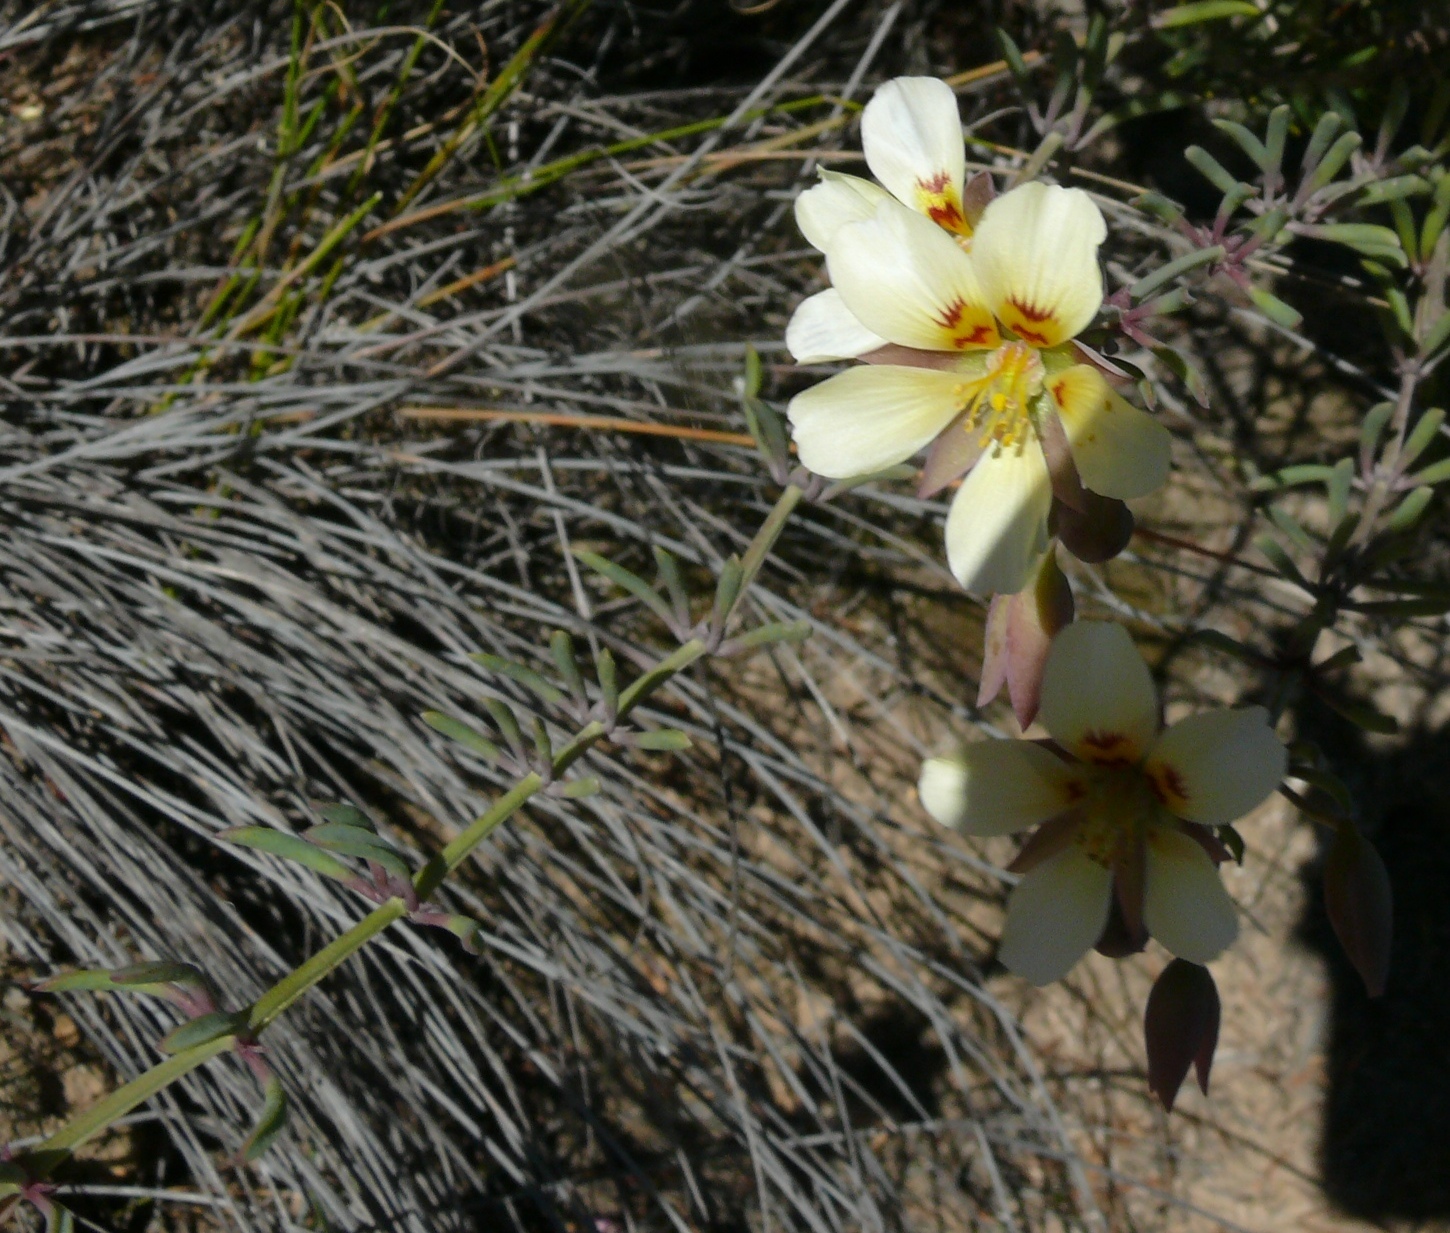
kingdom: Plantae
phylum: Tracheophyta
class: Magnoliopsida
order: Zygophyllales
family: Zygophyllaceae
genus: Roepera
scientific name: Roepera pygmaea
